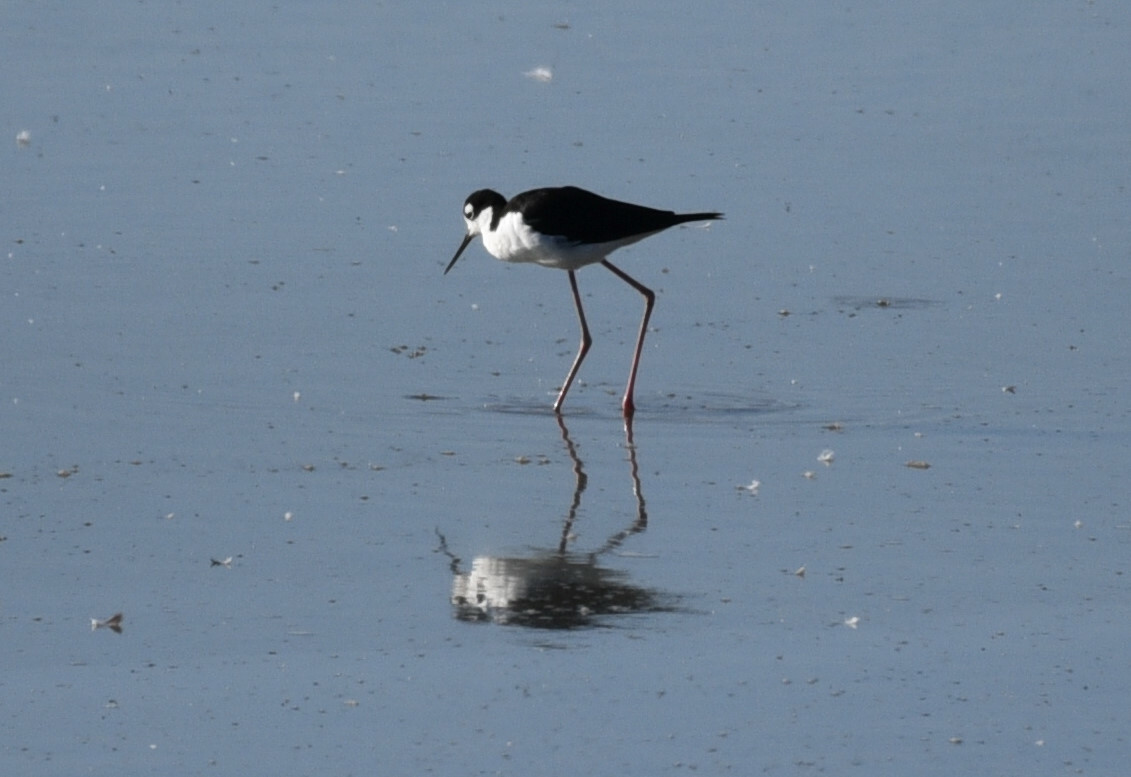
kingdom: Animalia
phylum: Chordata
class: Aves
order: Charadriiformes
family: Recurvirostridae
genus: Himantopus
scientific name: Himantopus mexicanus
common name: Black-necked stilt
